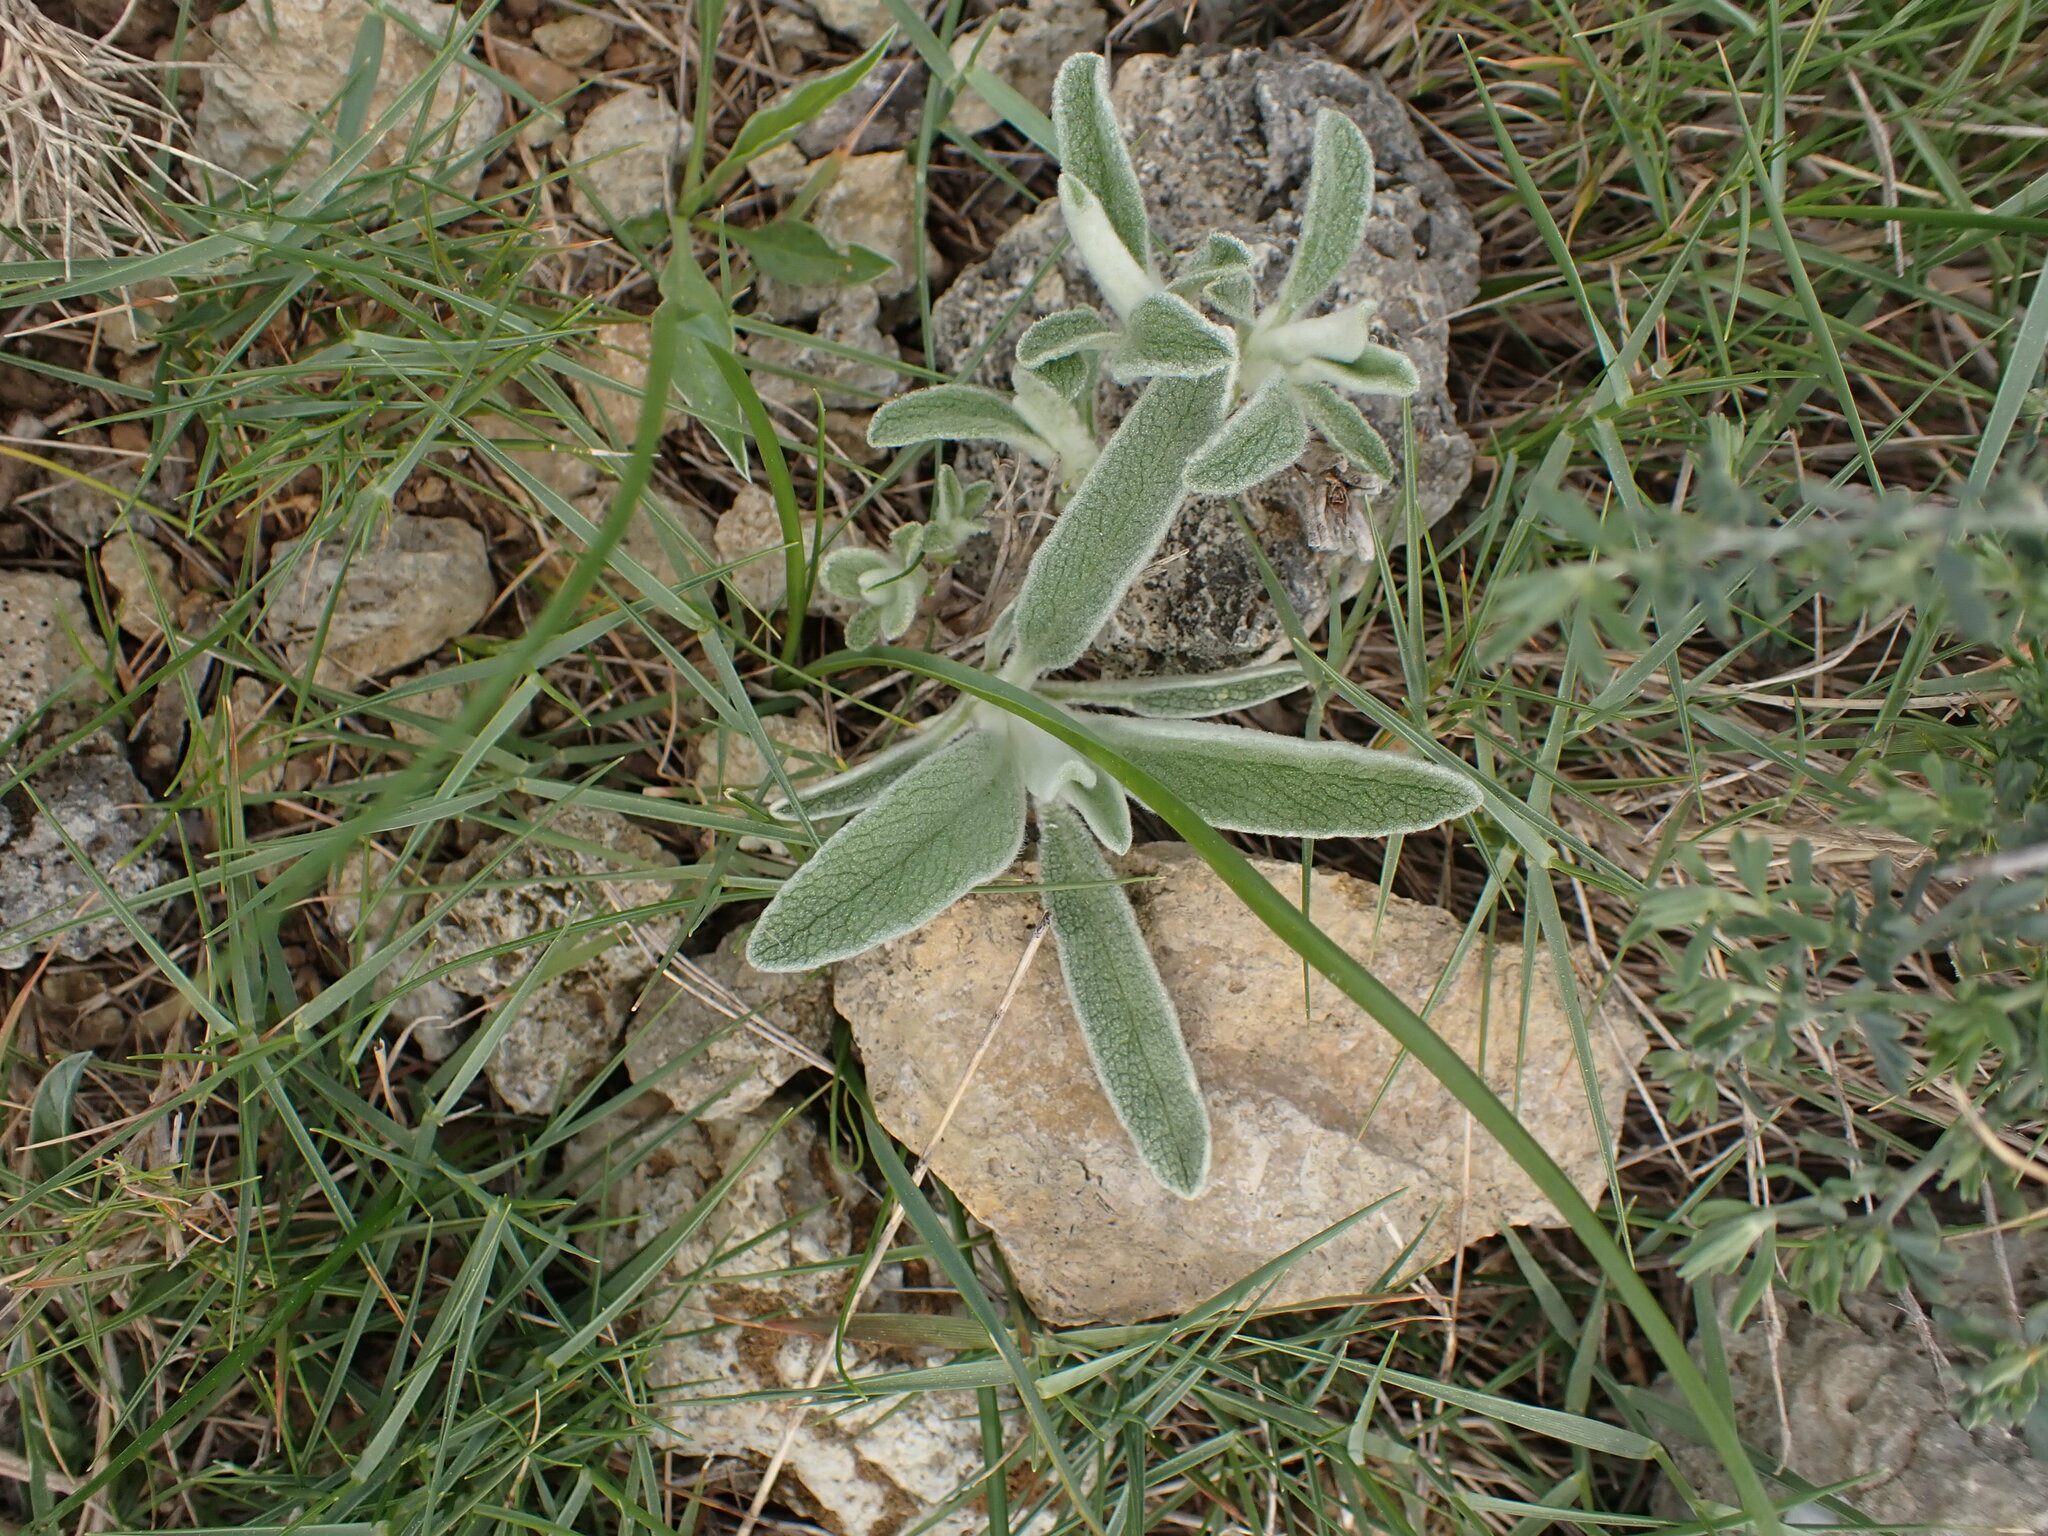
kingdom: Plantae
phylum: Tracheophyta
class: Magnoliopsida
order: Lamiales
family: Lamiaceae
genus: Phlomis
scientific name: Phlomis lychnitis
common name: Lampwickplant
